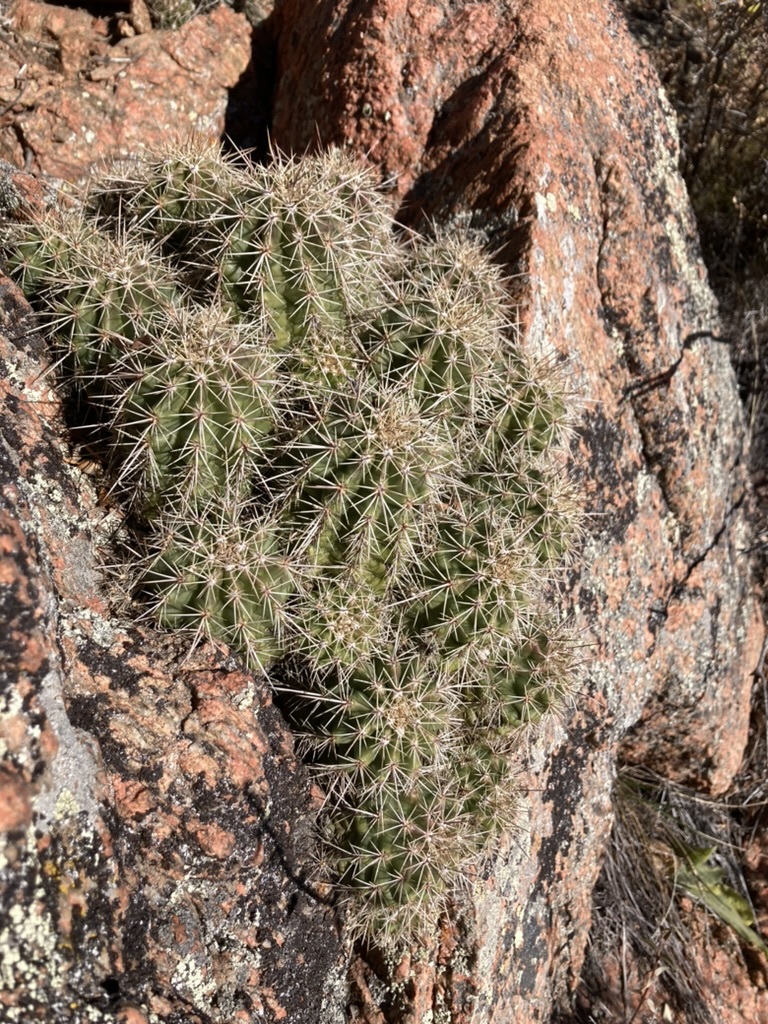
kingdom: Plantae
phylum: Tracheophyta
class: Magnoliopsida
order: Caryophyllales
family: Cactaceae
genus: Echinocereus
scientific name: Echinocereus coccineus
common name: Scarlet hedgehog cactus
